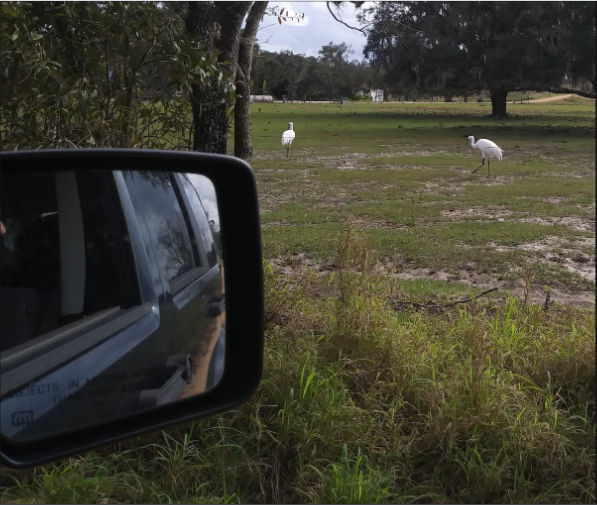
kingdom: Animalia
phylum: Chordata
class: Aves
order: Gruiformes
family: Gruidae
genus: Grus
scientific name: Grus americana
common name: Whooping crane
